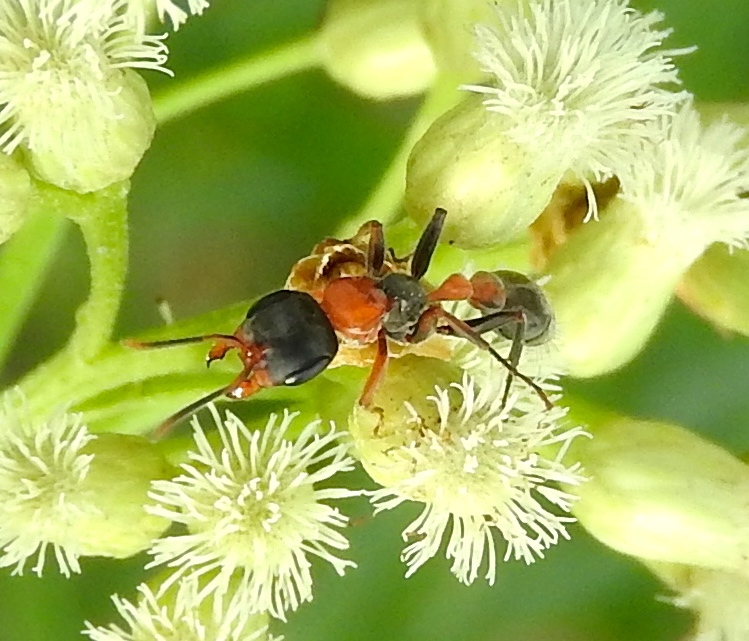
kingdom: Animalia
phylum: Arthropoda
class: Insecta
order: Hymenoptera
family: Formicidae
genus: Pseudomyrmex
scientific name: Pseudomyrmex gracilis
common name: Graceful twig ant
